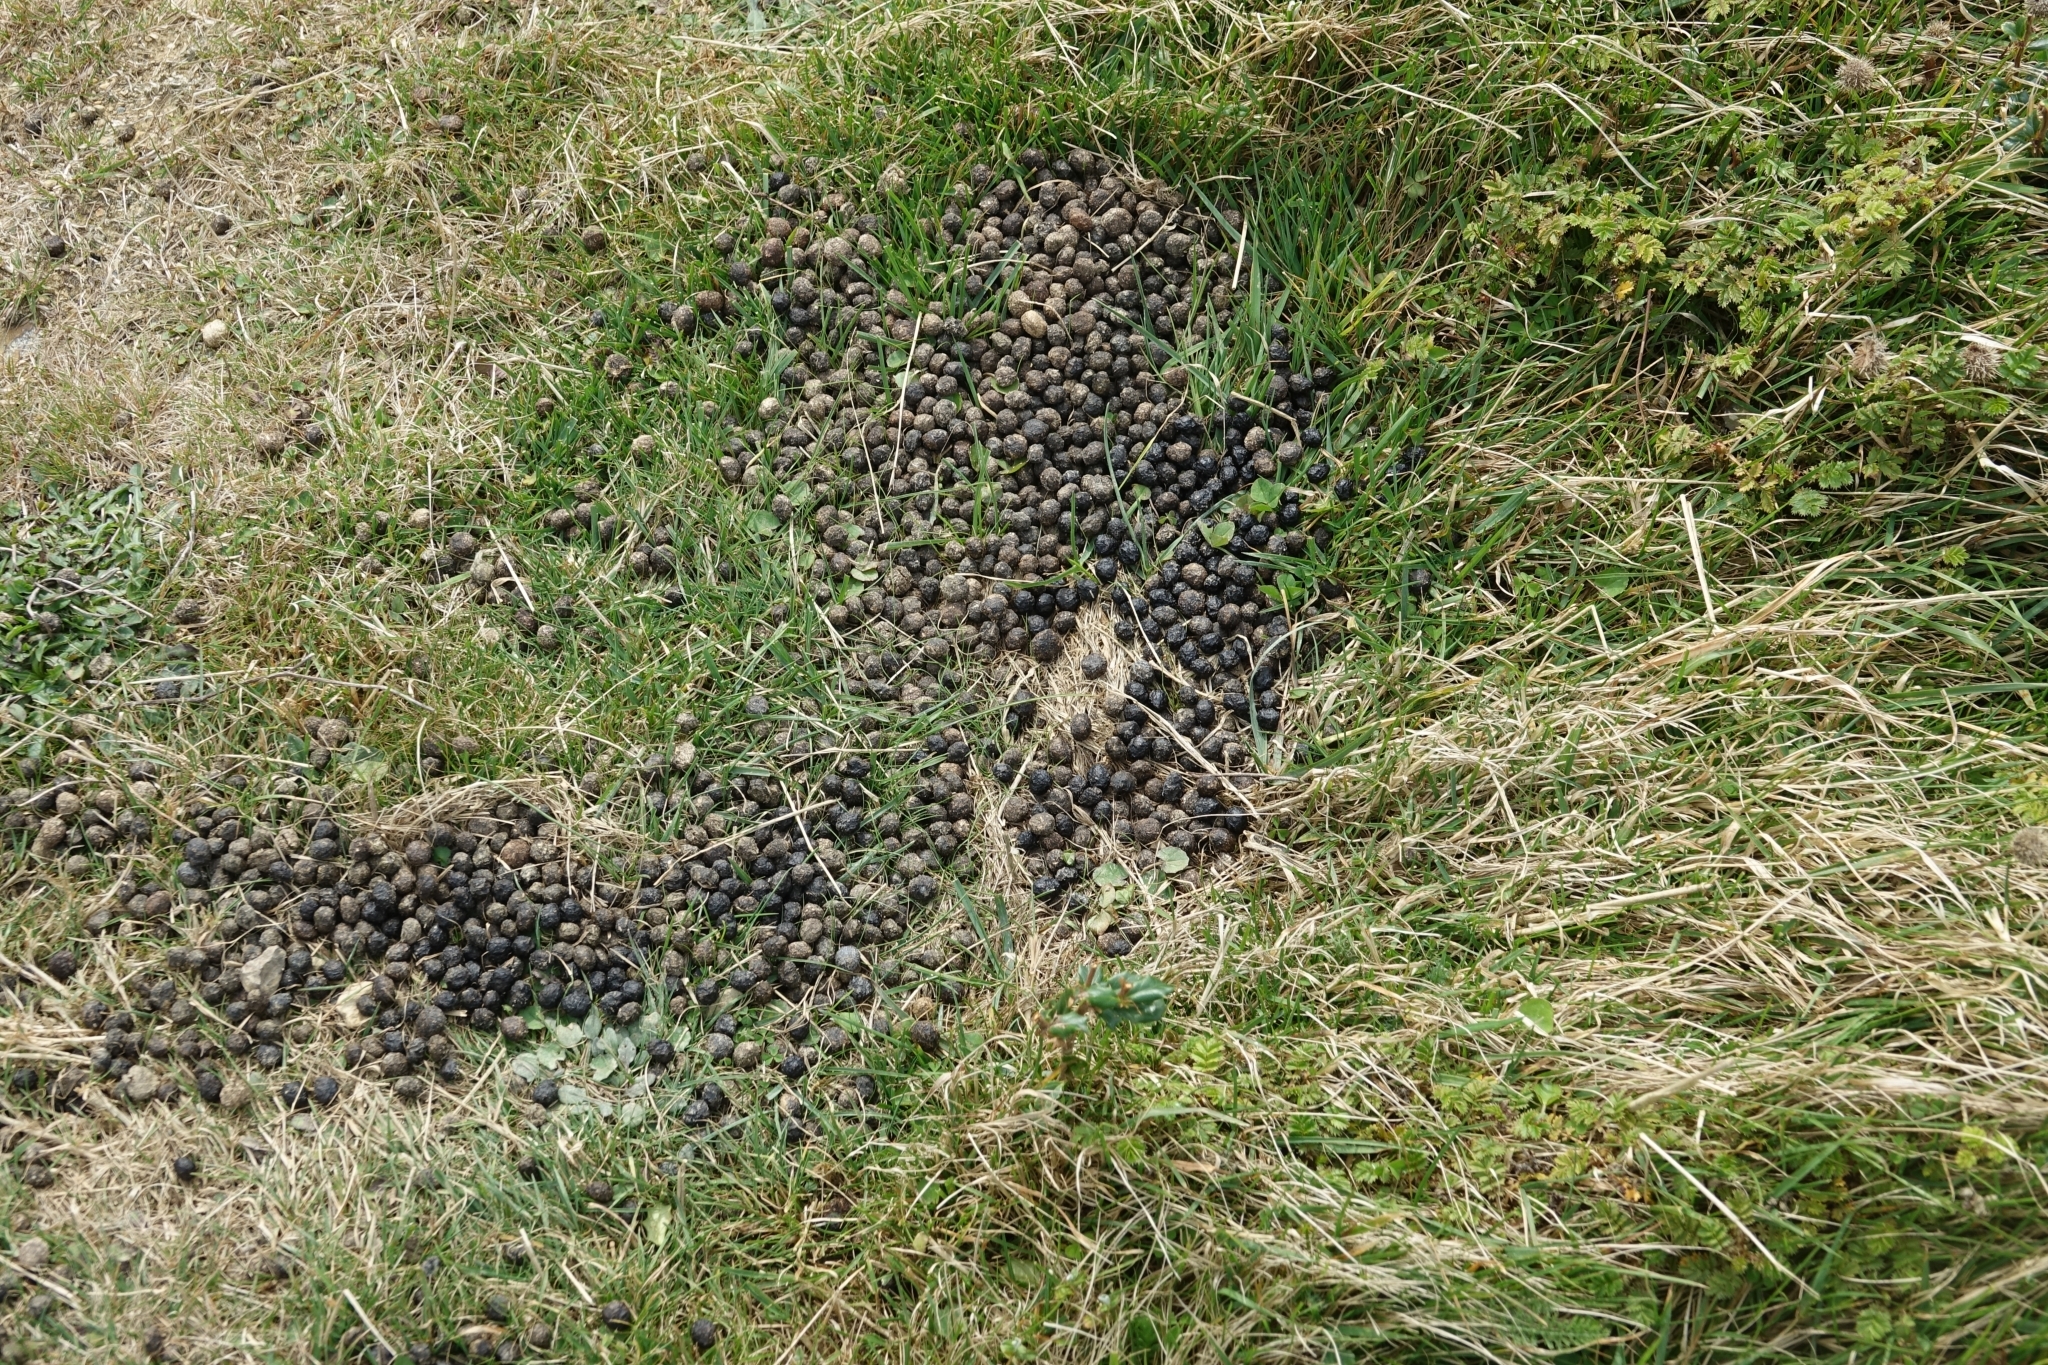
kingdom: Animalia
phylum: Chordata
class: Mammalia
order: Lagomorpha
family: Leporidae
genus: Oryctolagus
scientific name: Oryctolagus cuniculus
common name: European rabbit
